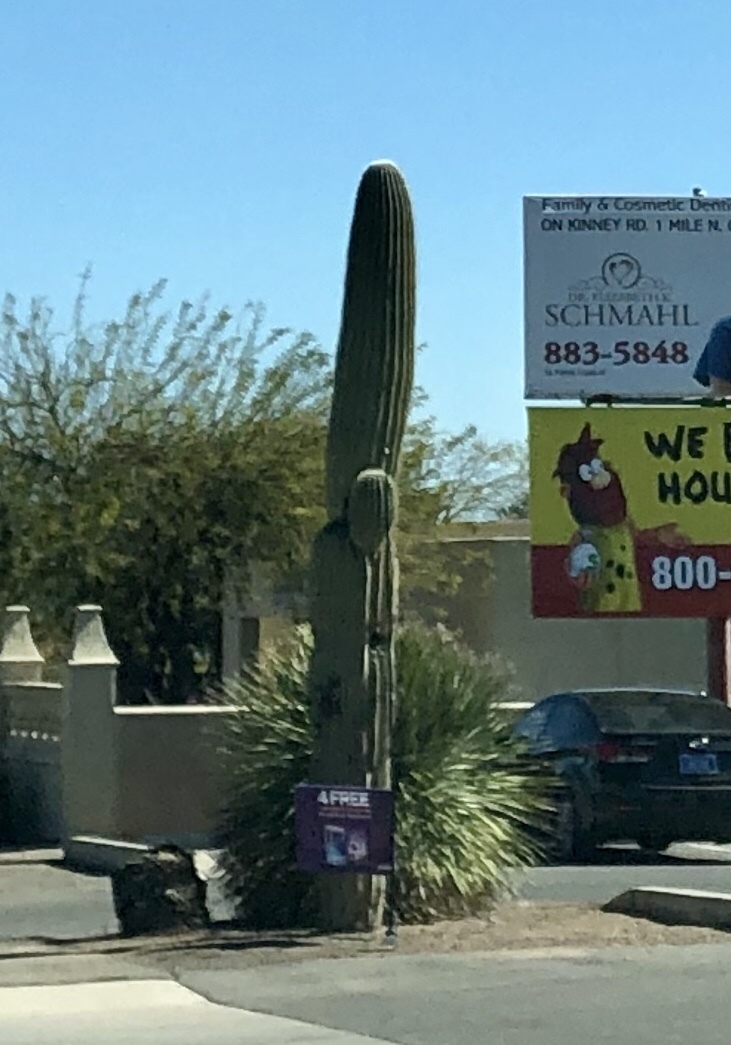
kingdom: Plantae
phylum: Tracheophyta
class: Magnoliopsida
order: Caryophyllales
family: Cactaceae
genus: Carnegiea
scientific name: Carnegiea gigantea
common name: Saguaro
